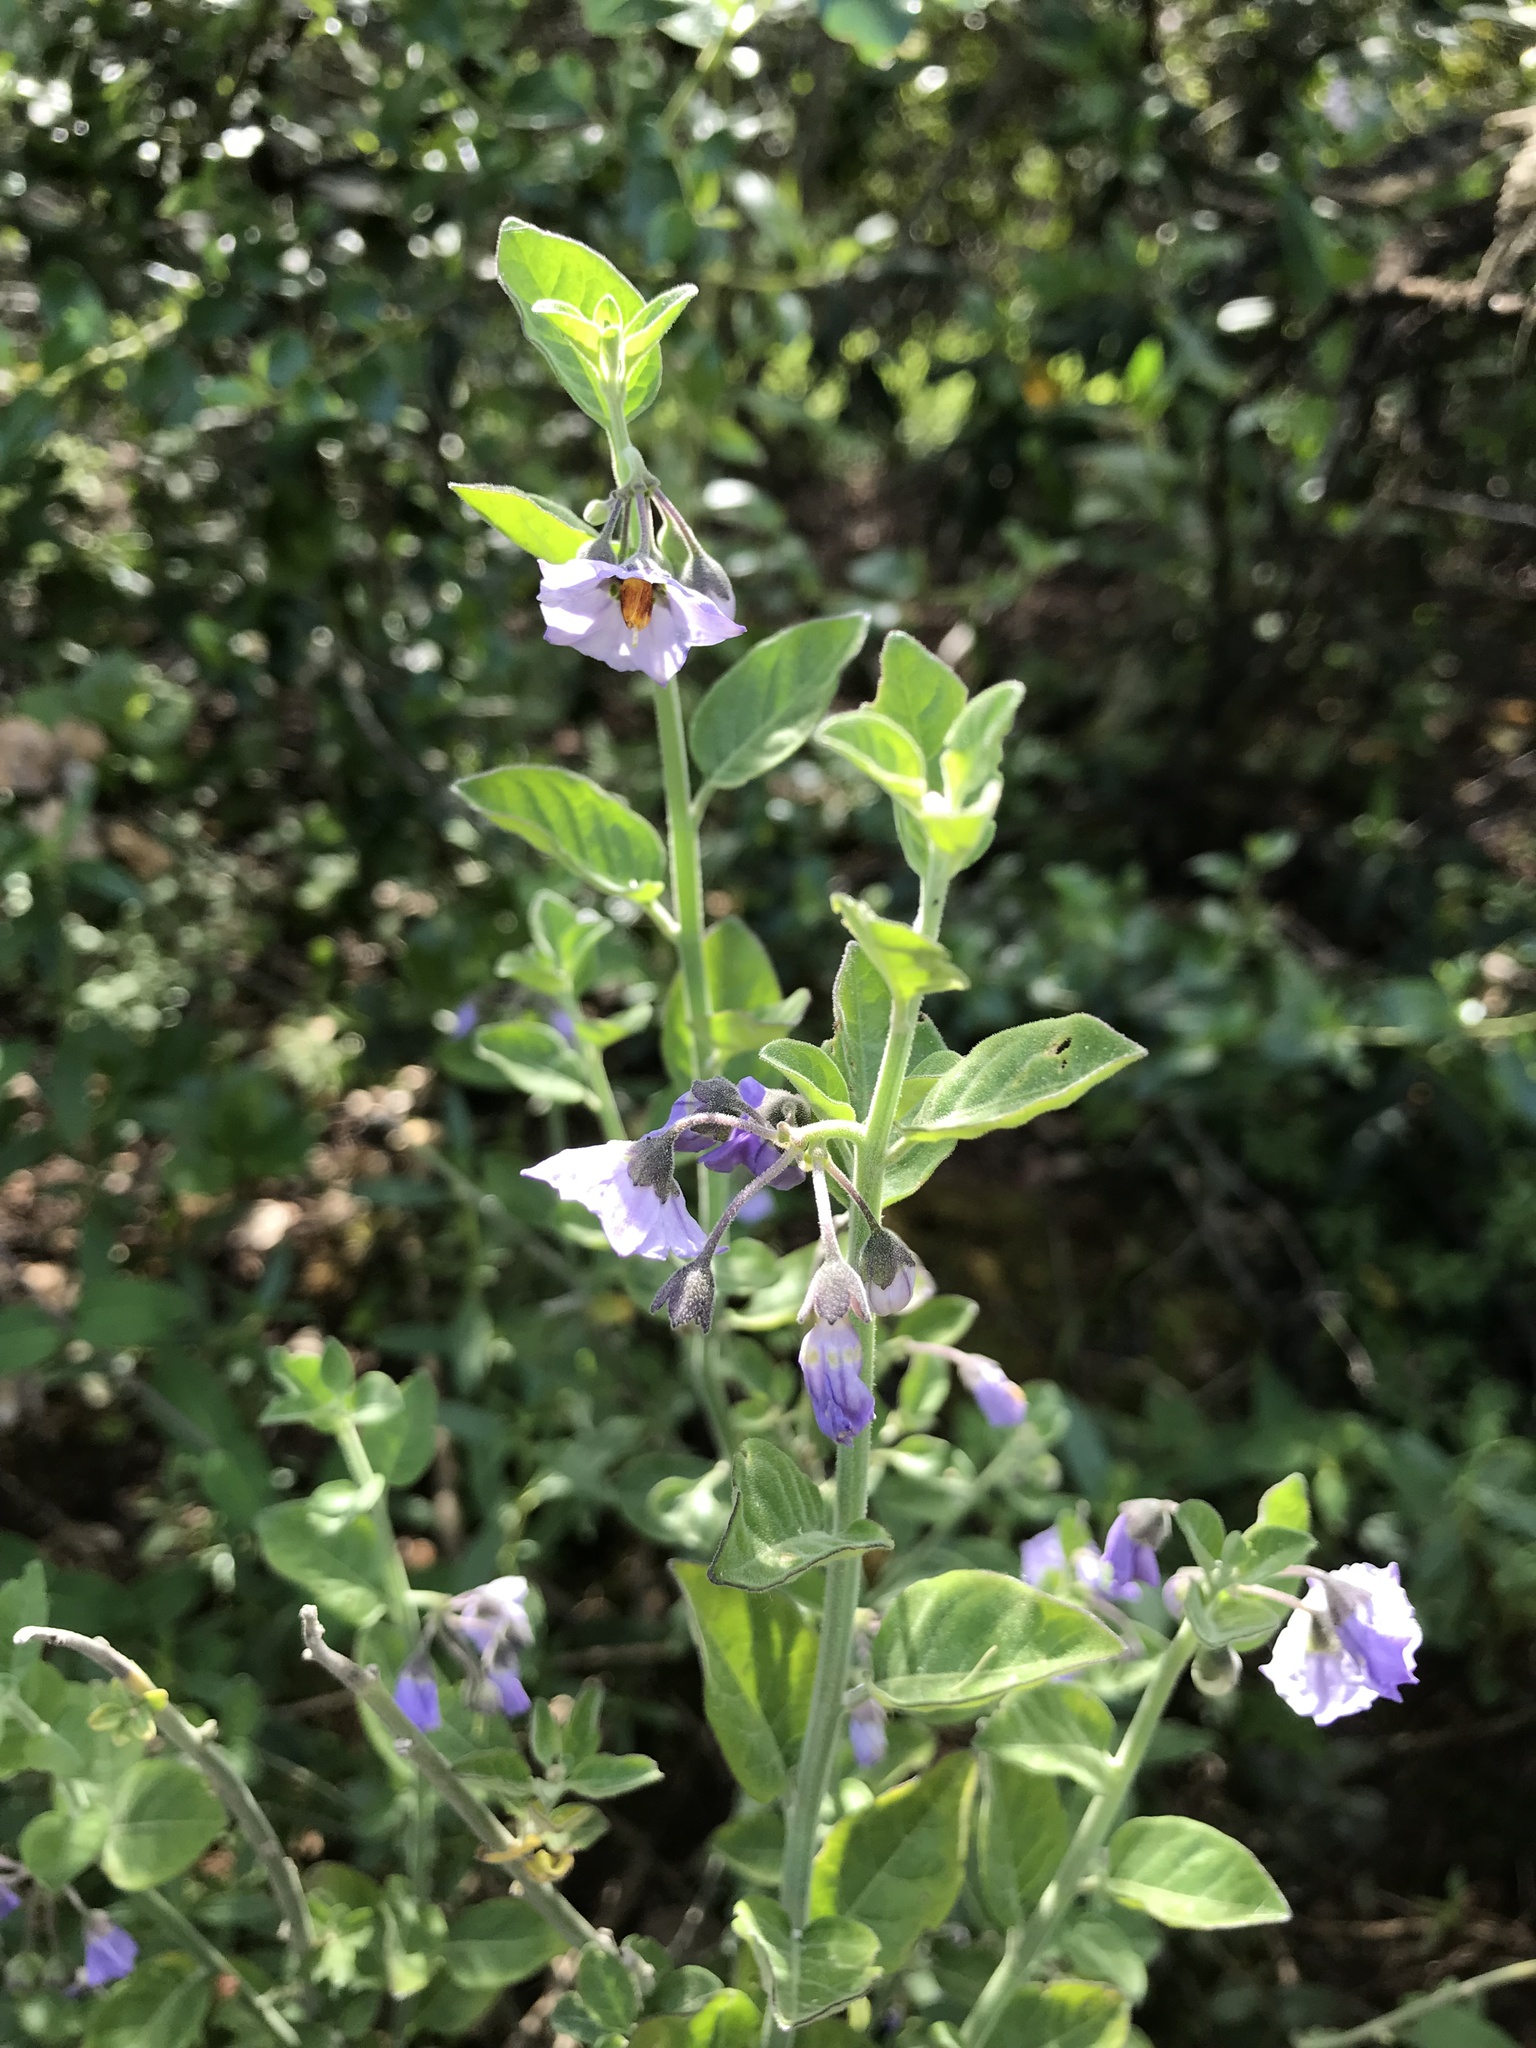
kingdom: Plantae
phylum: Tracheophyta
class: Magnoliopsida
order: Solanales
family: Solanaceae
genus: Solanum
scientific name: Solanum umbelliferum
